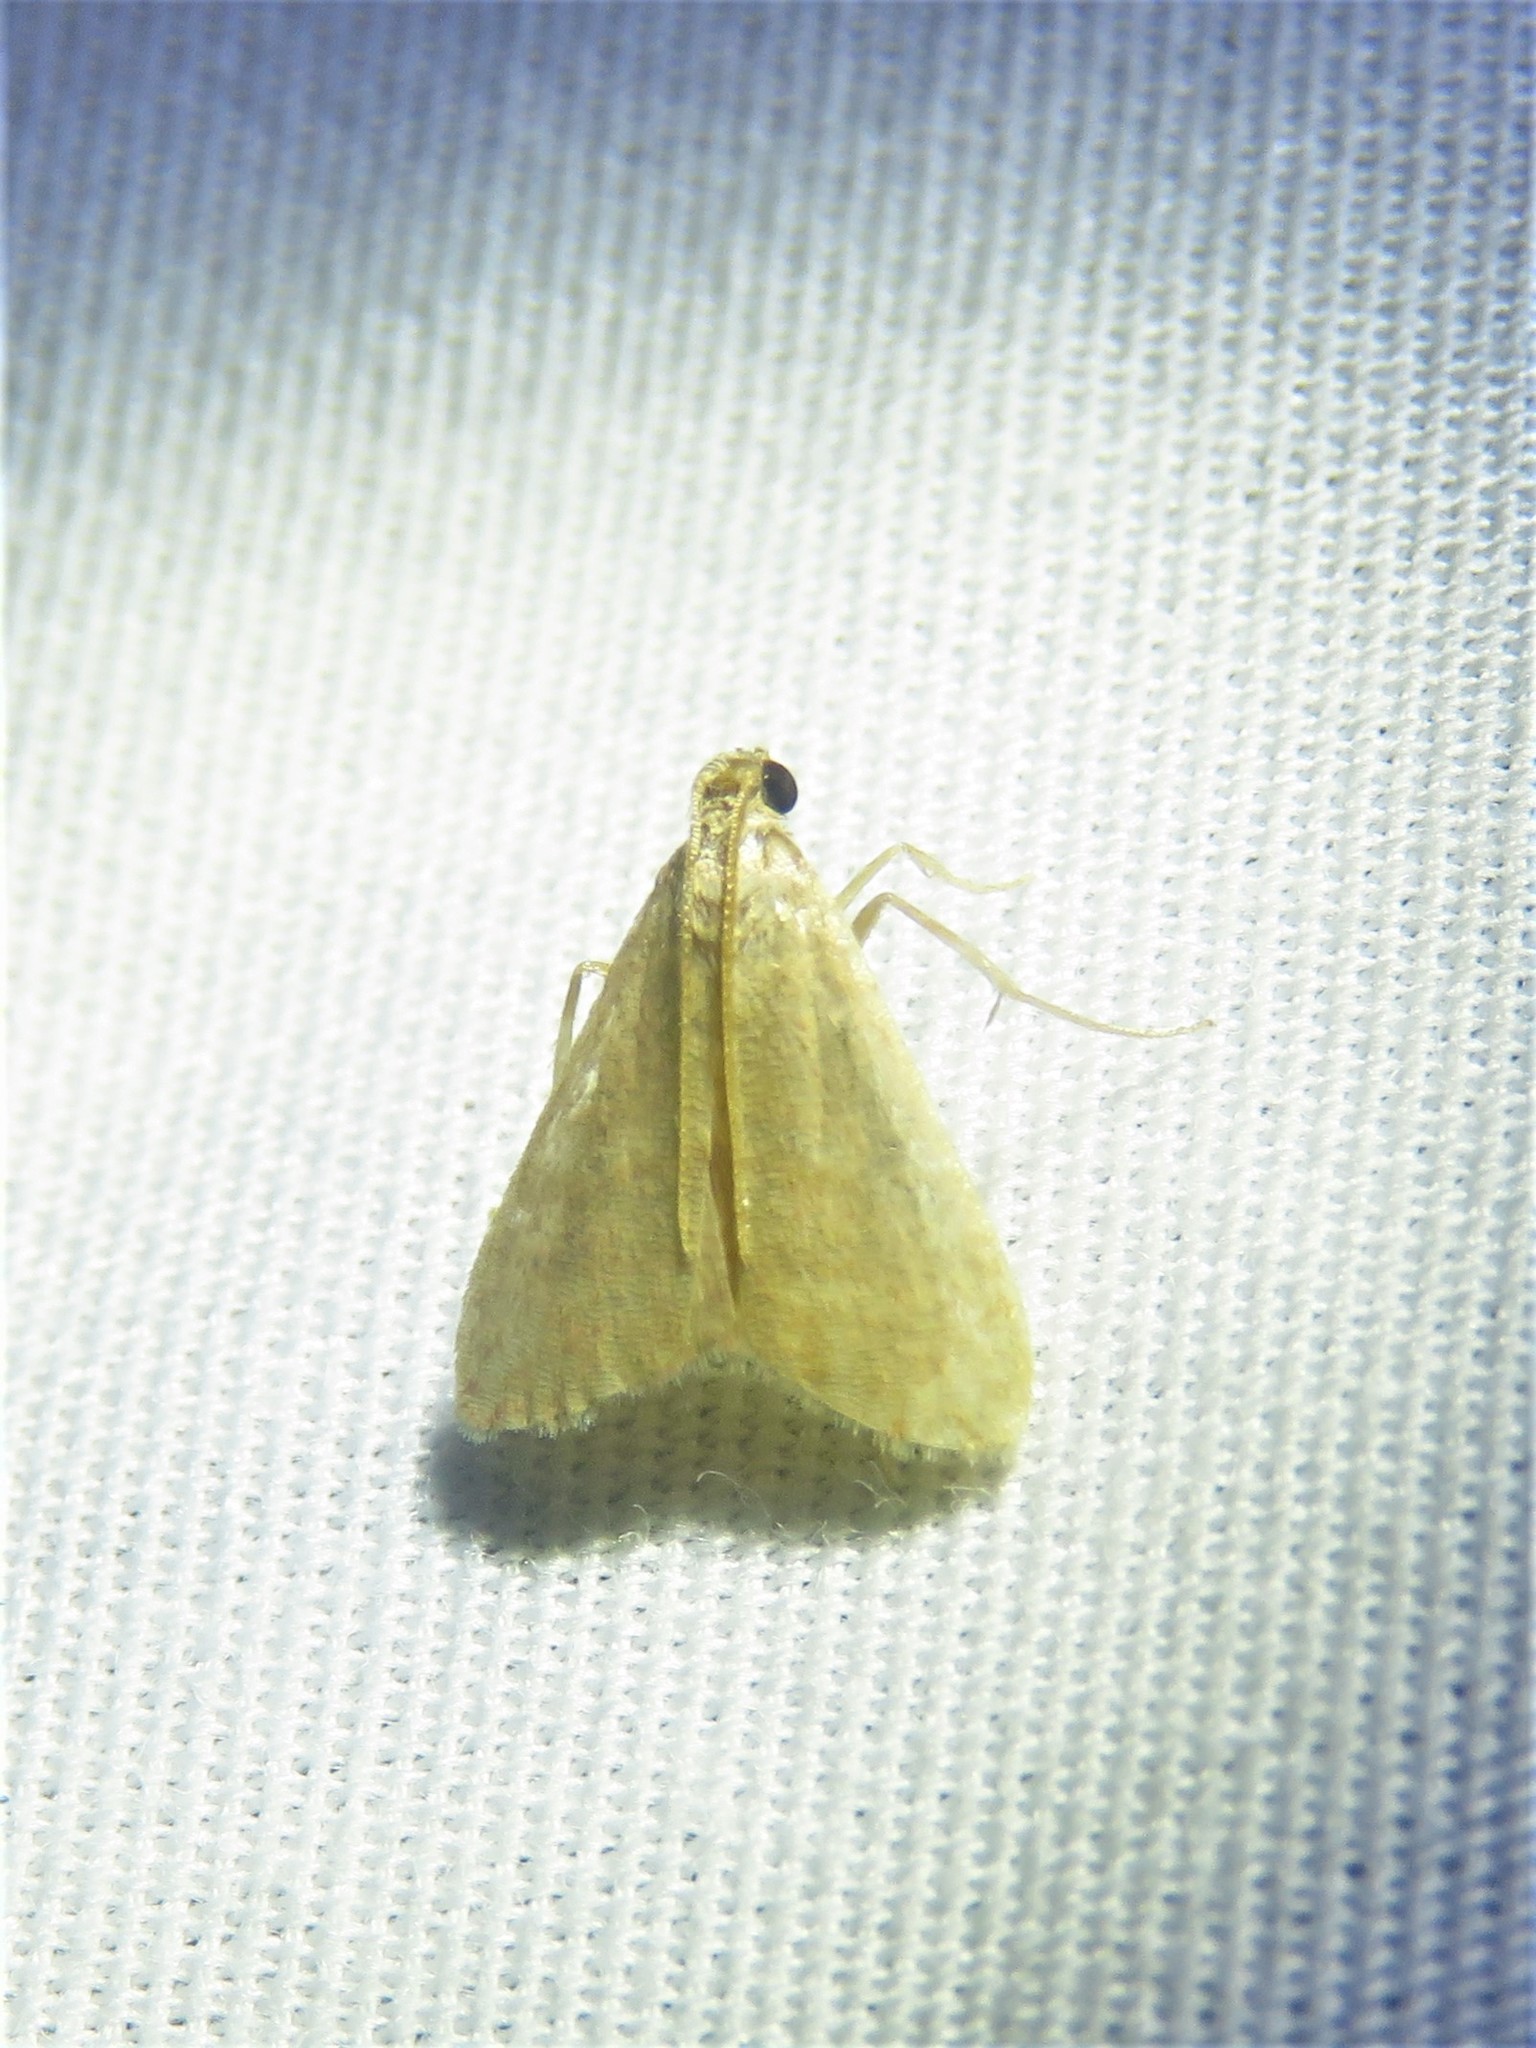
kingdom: Animalia
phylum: Arthropoda
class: Insecta
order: Lepidoptera
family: Pyralidae
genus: Arta
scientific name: Arta olivalis
